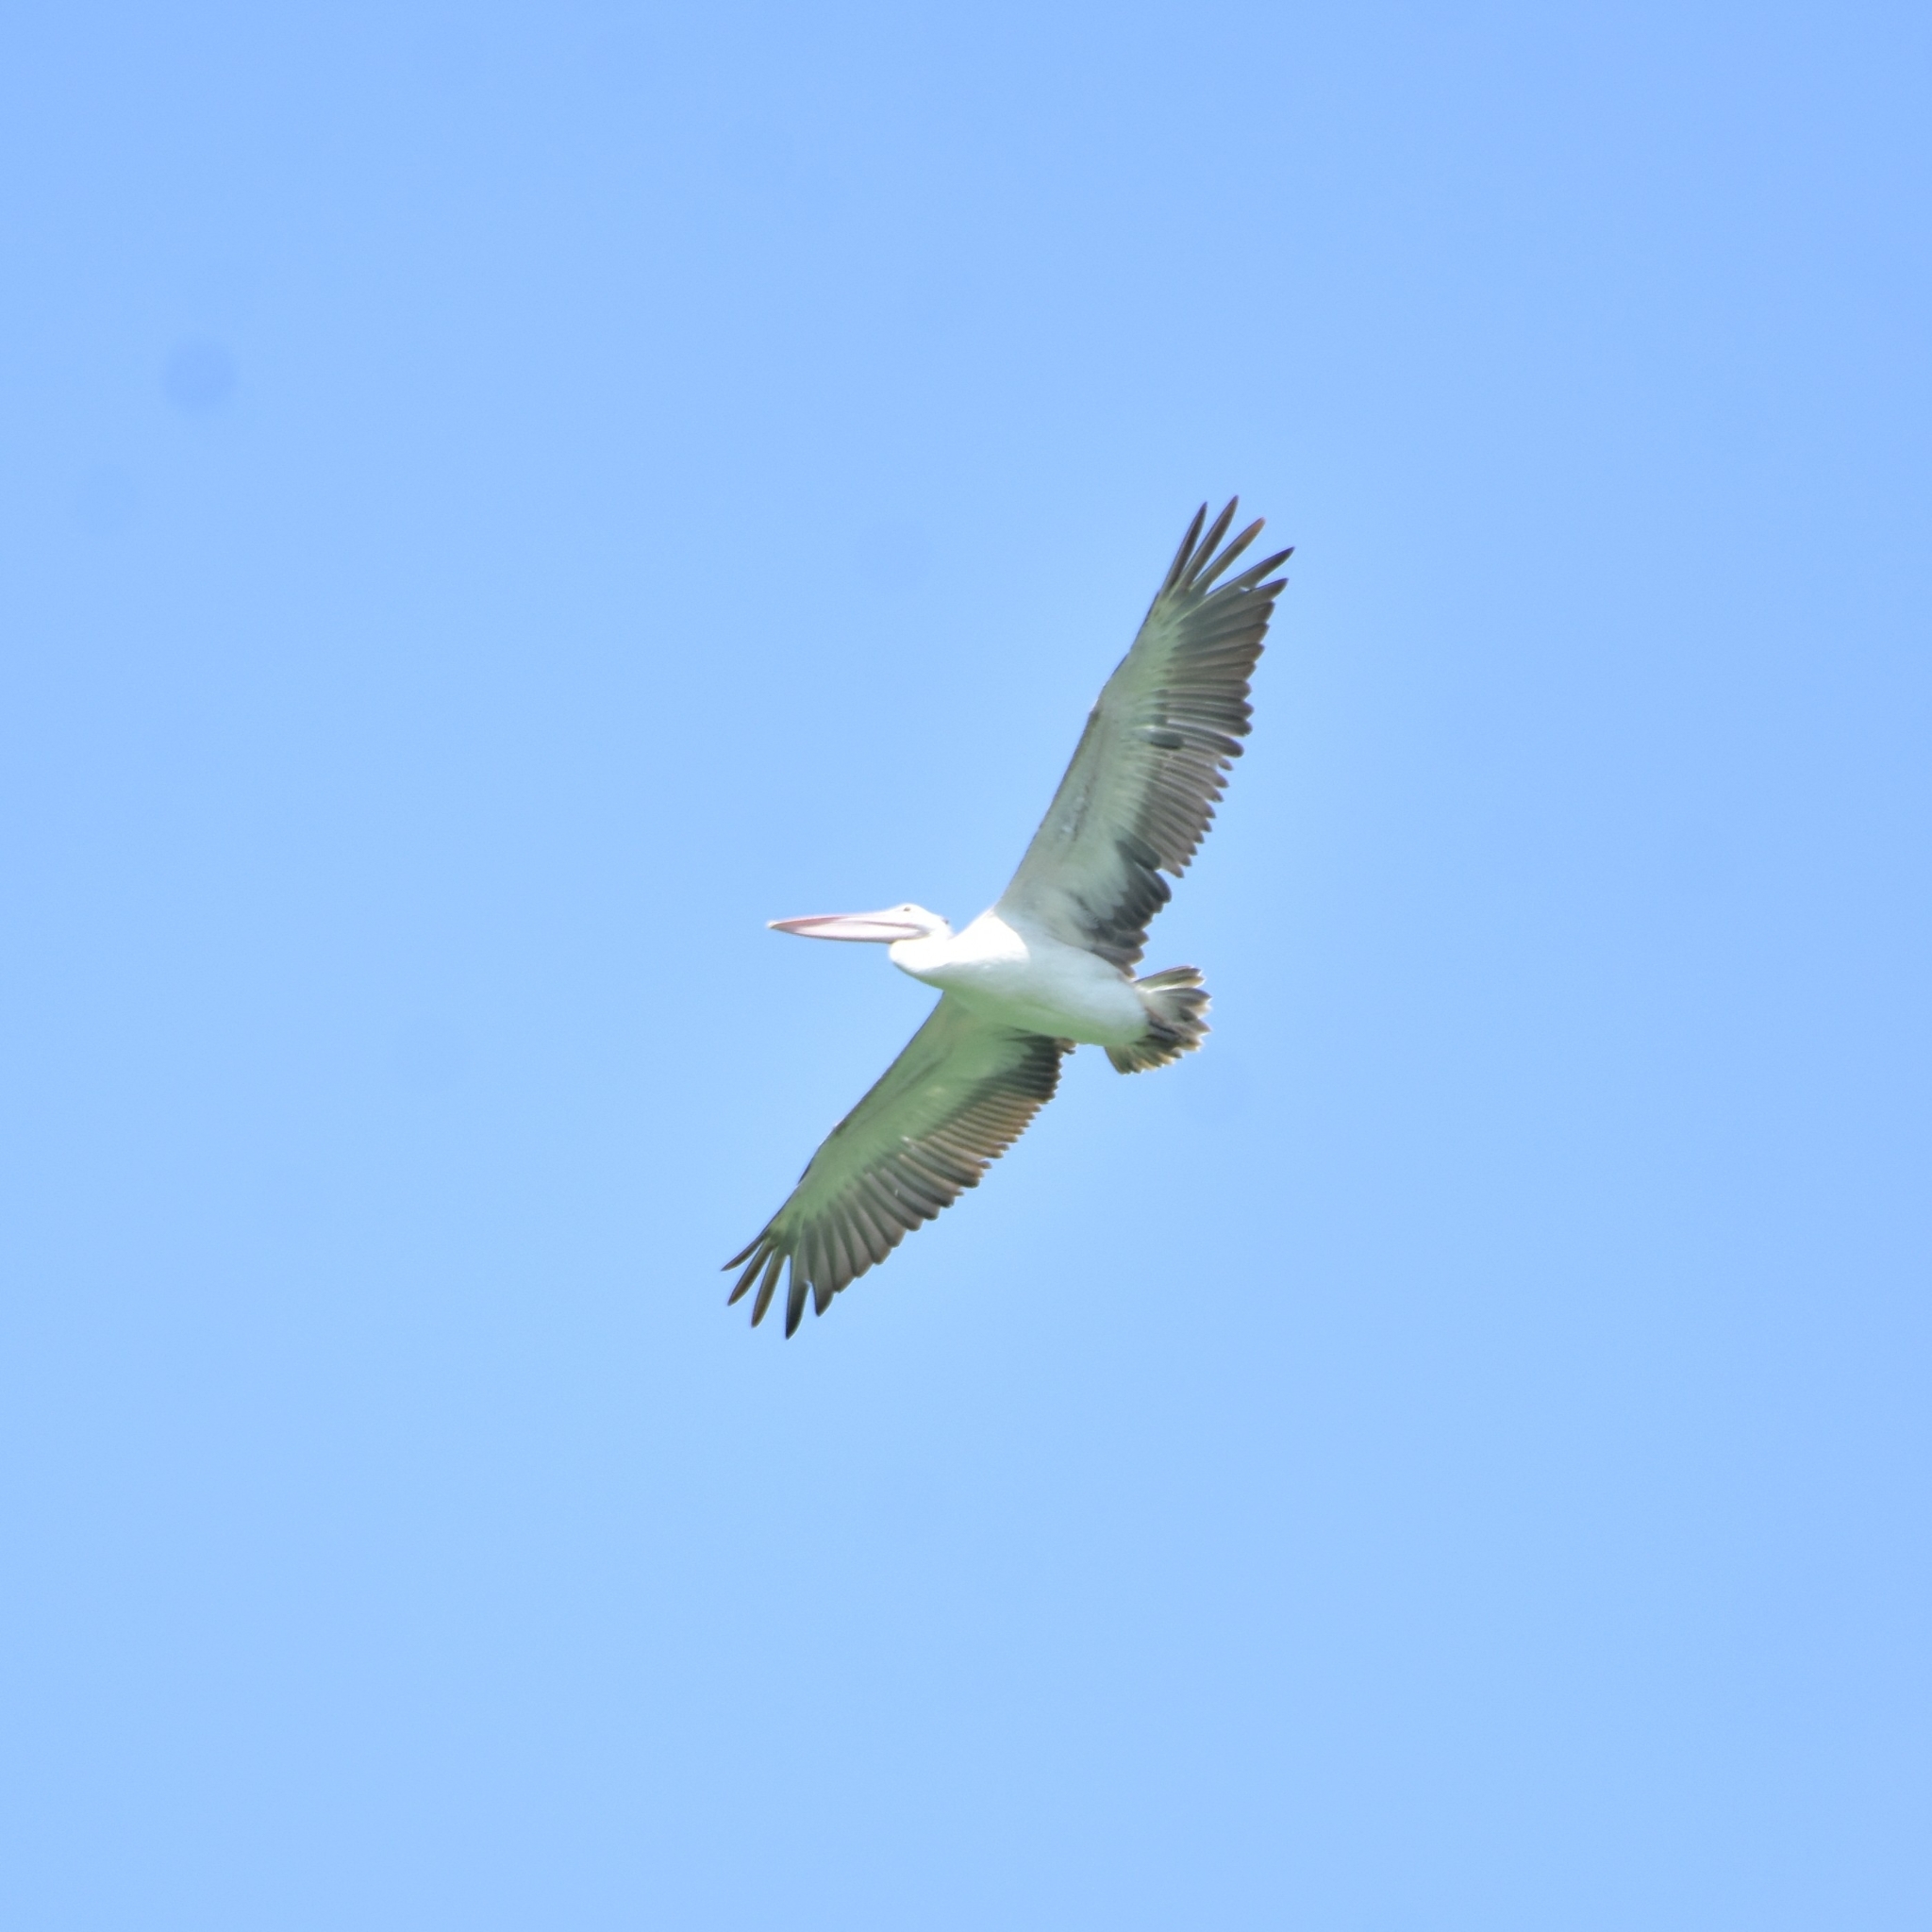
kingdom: Animalia
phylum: Chordata
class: Aves
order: Pelecaniformes
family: Pelecanidae
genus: Pelecanus
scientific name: Pelecanus philippensis
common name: Spot-billed pelican
